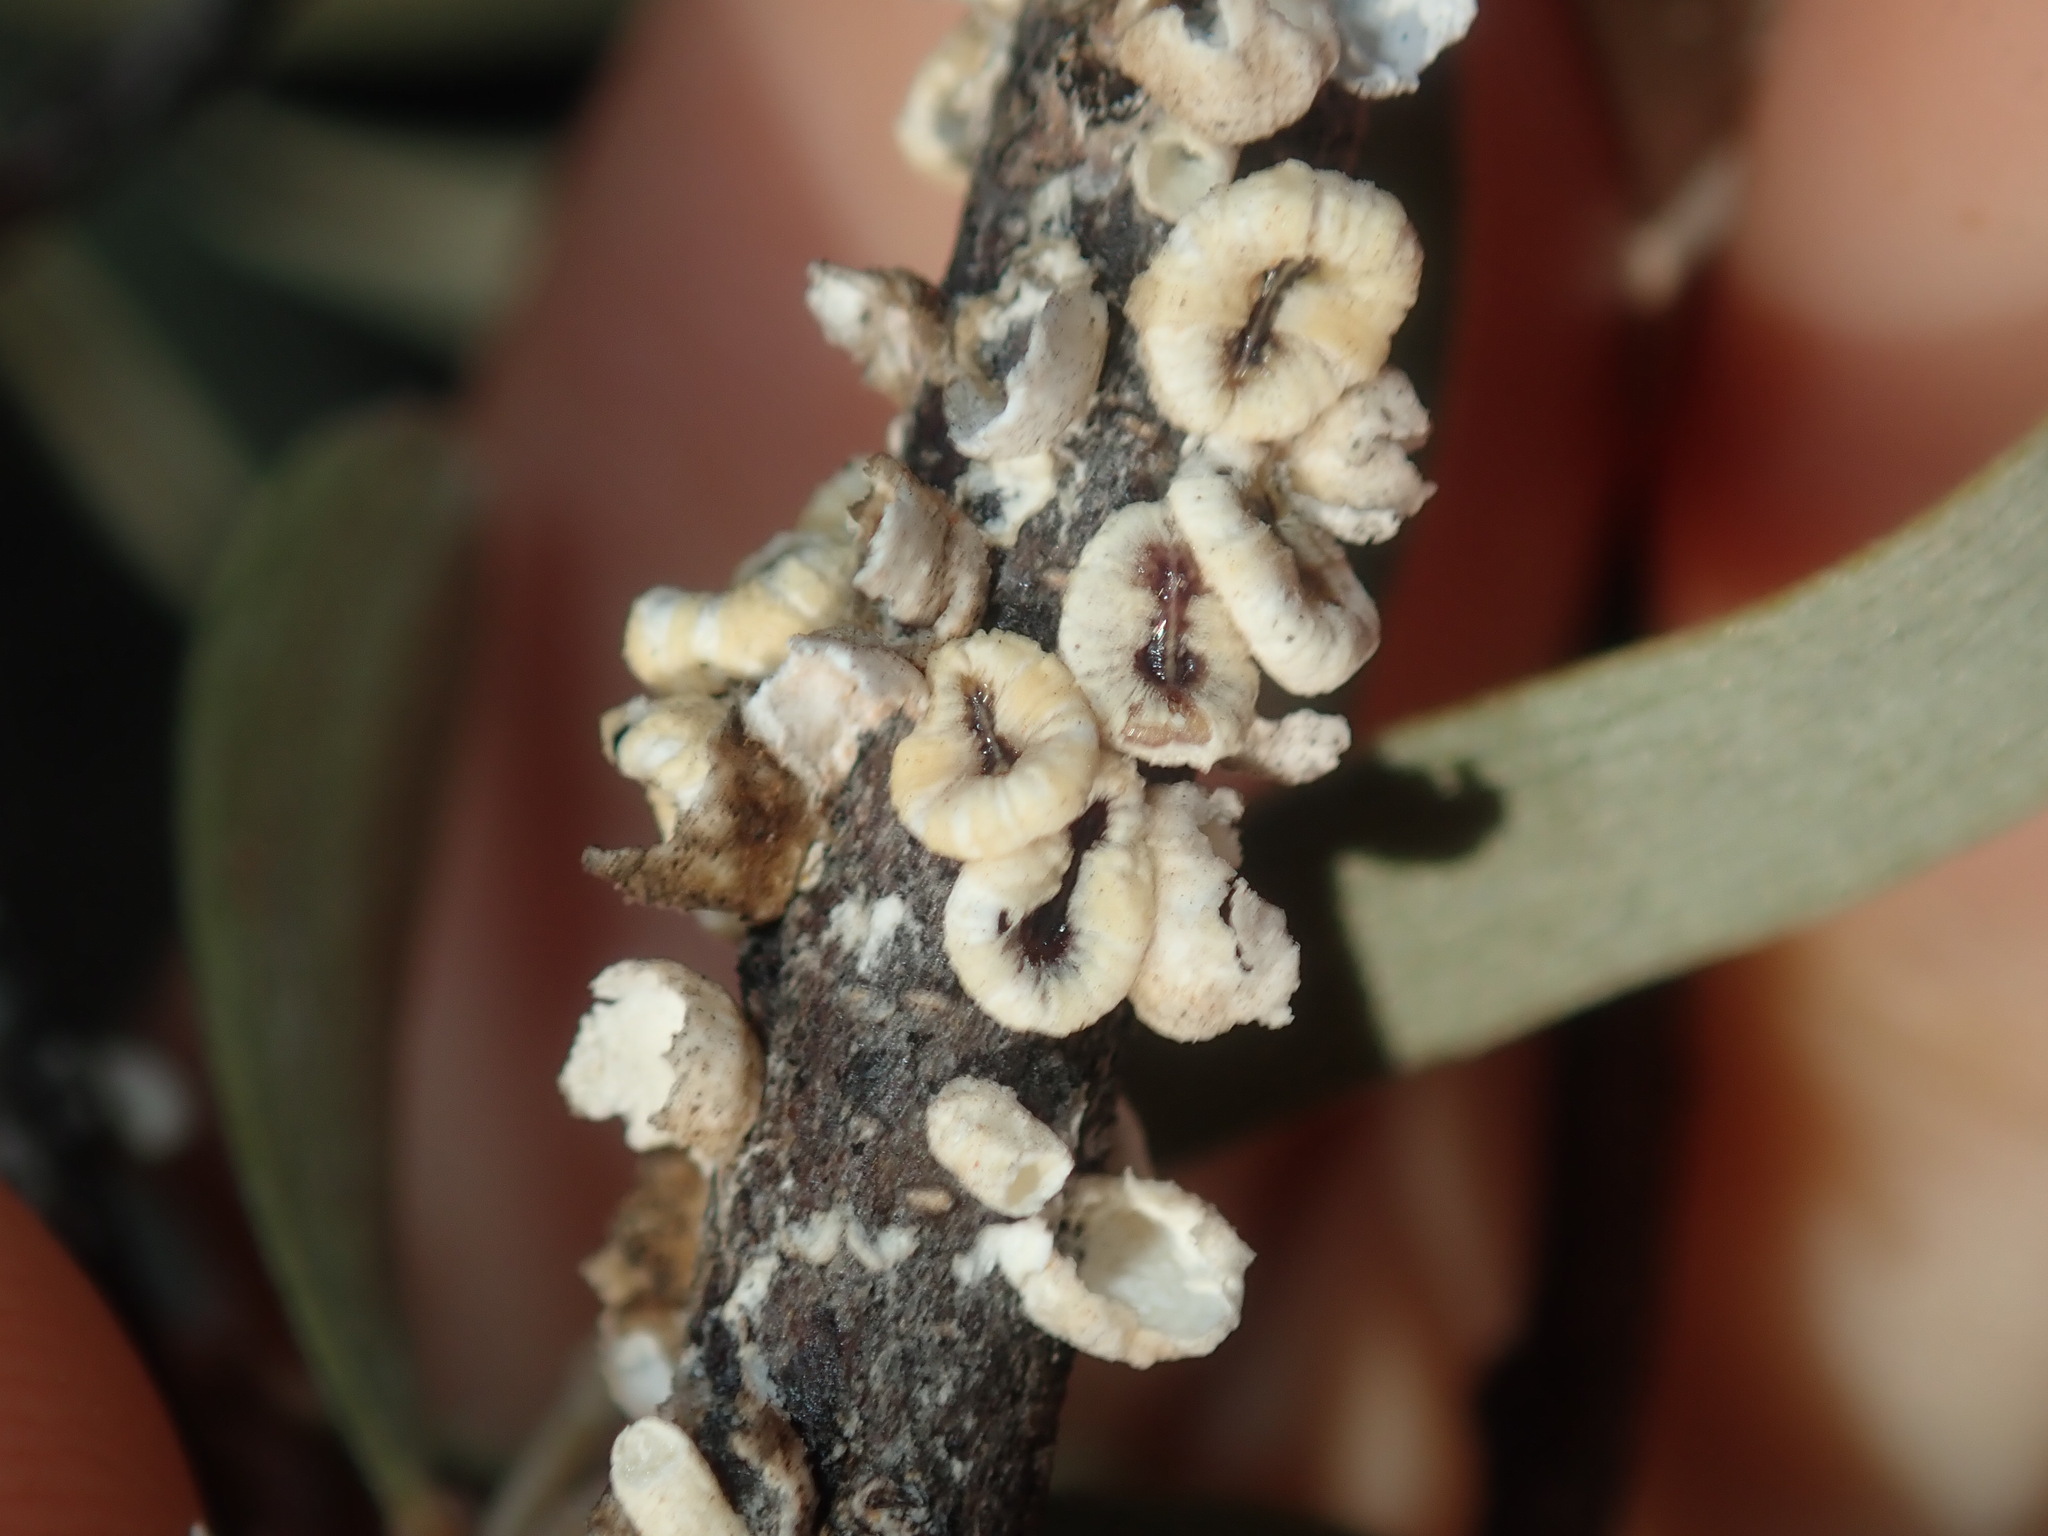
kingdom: Animalia
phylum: Arthropoda
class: Insecta
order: Hemiptera
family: Coccidae
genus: Cryptes
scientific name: Cryptes utzoni
